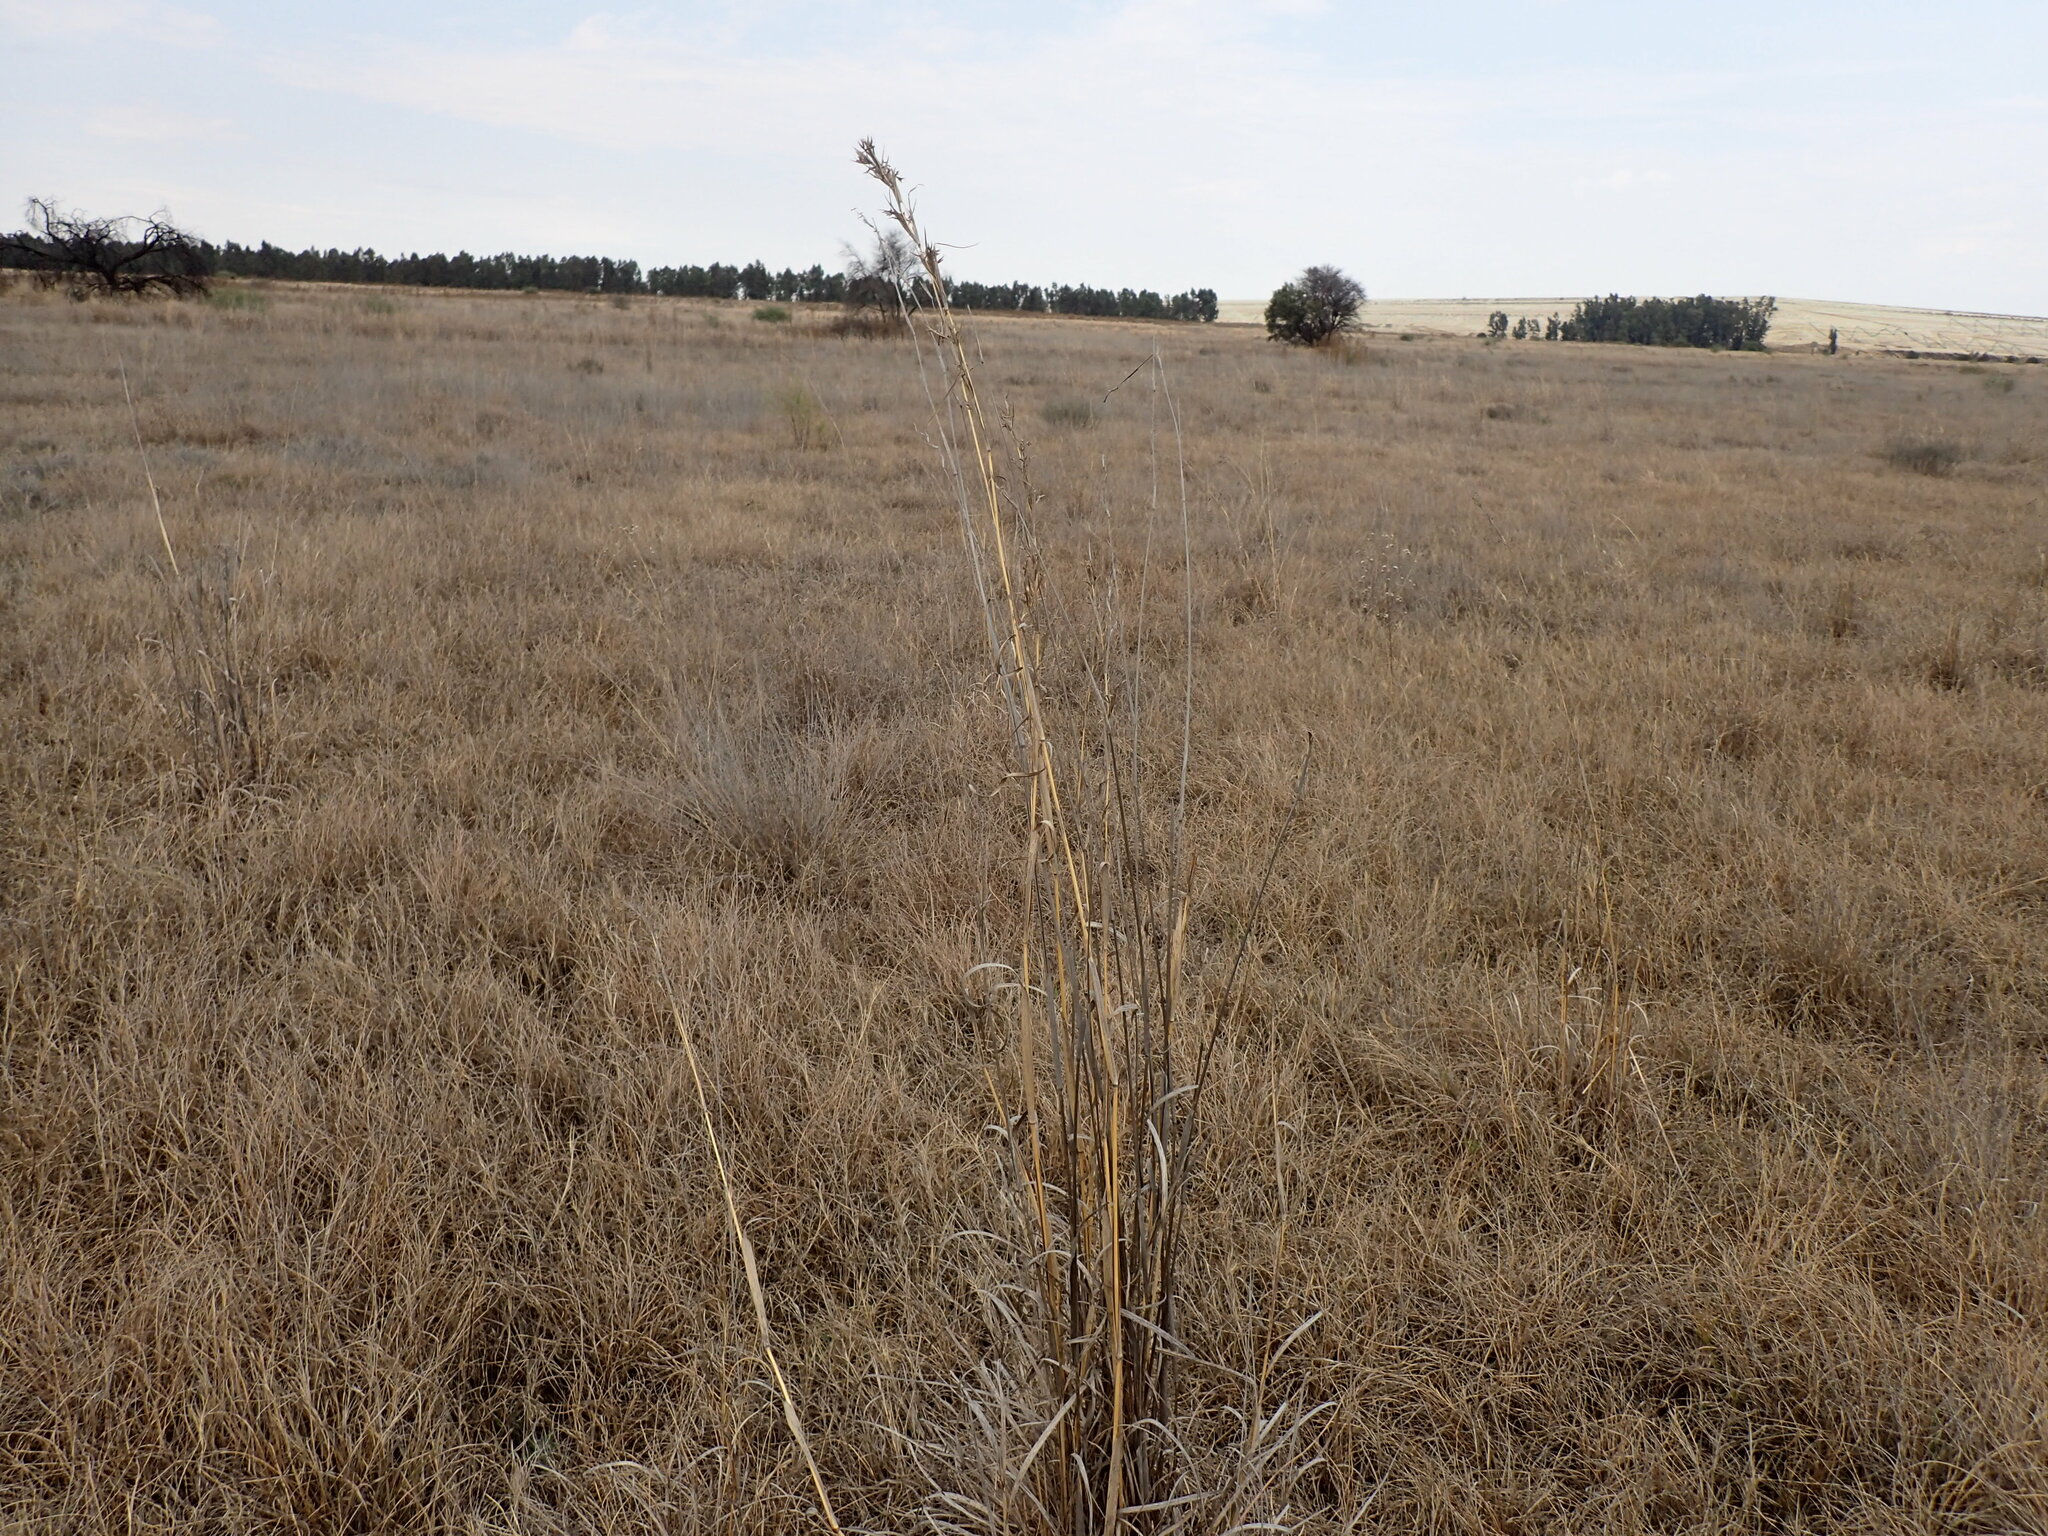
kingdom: Plantae
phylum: Tracheophyta
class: Liliopsida
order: Poales
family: Poaceae
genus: Cymbopogon
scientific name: Cymbopogon caesius
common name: Kachi grass
